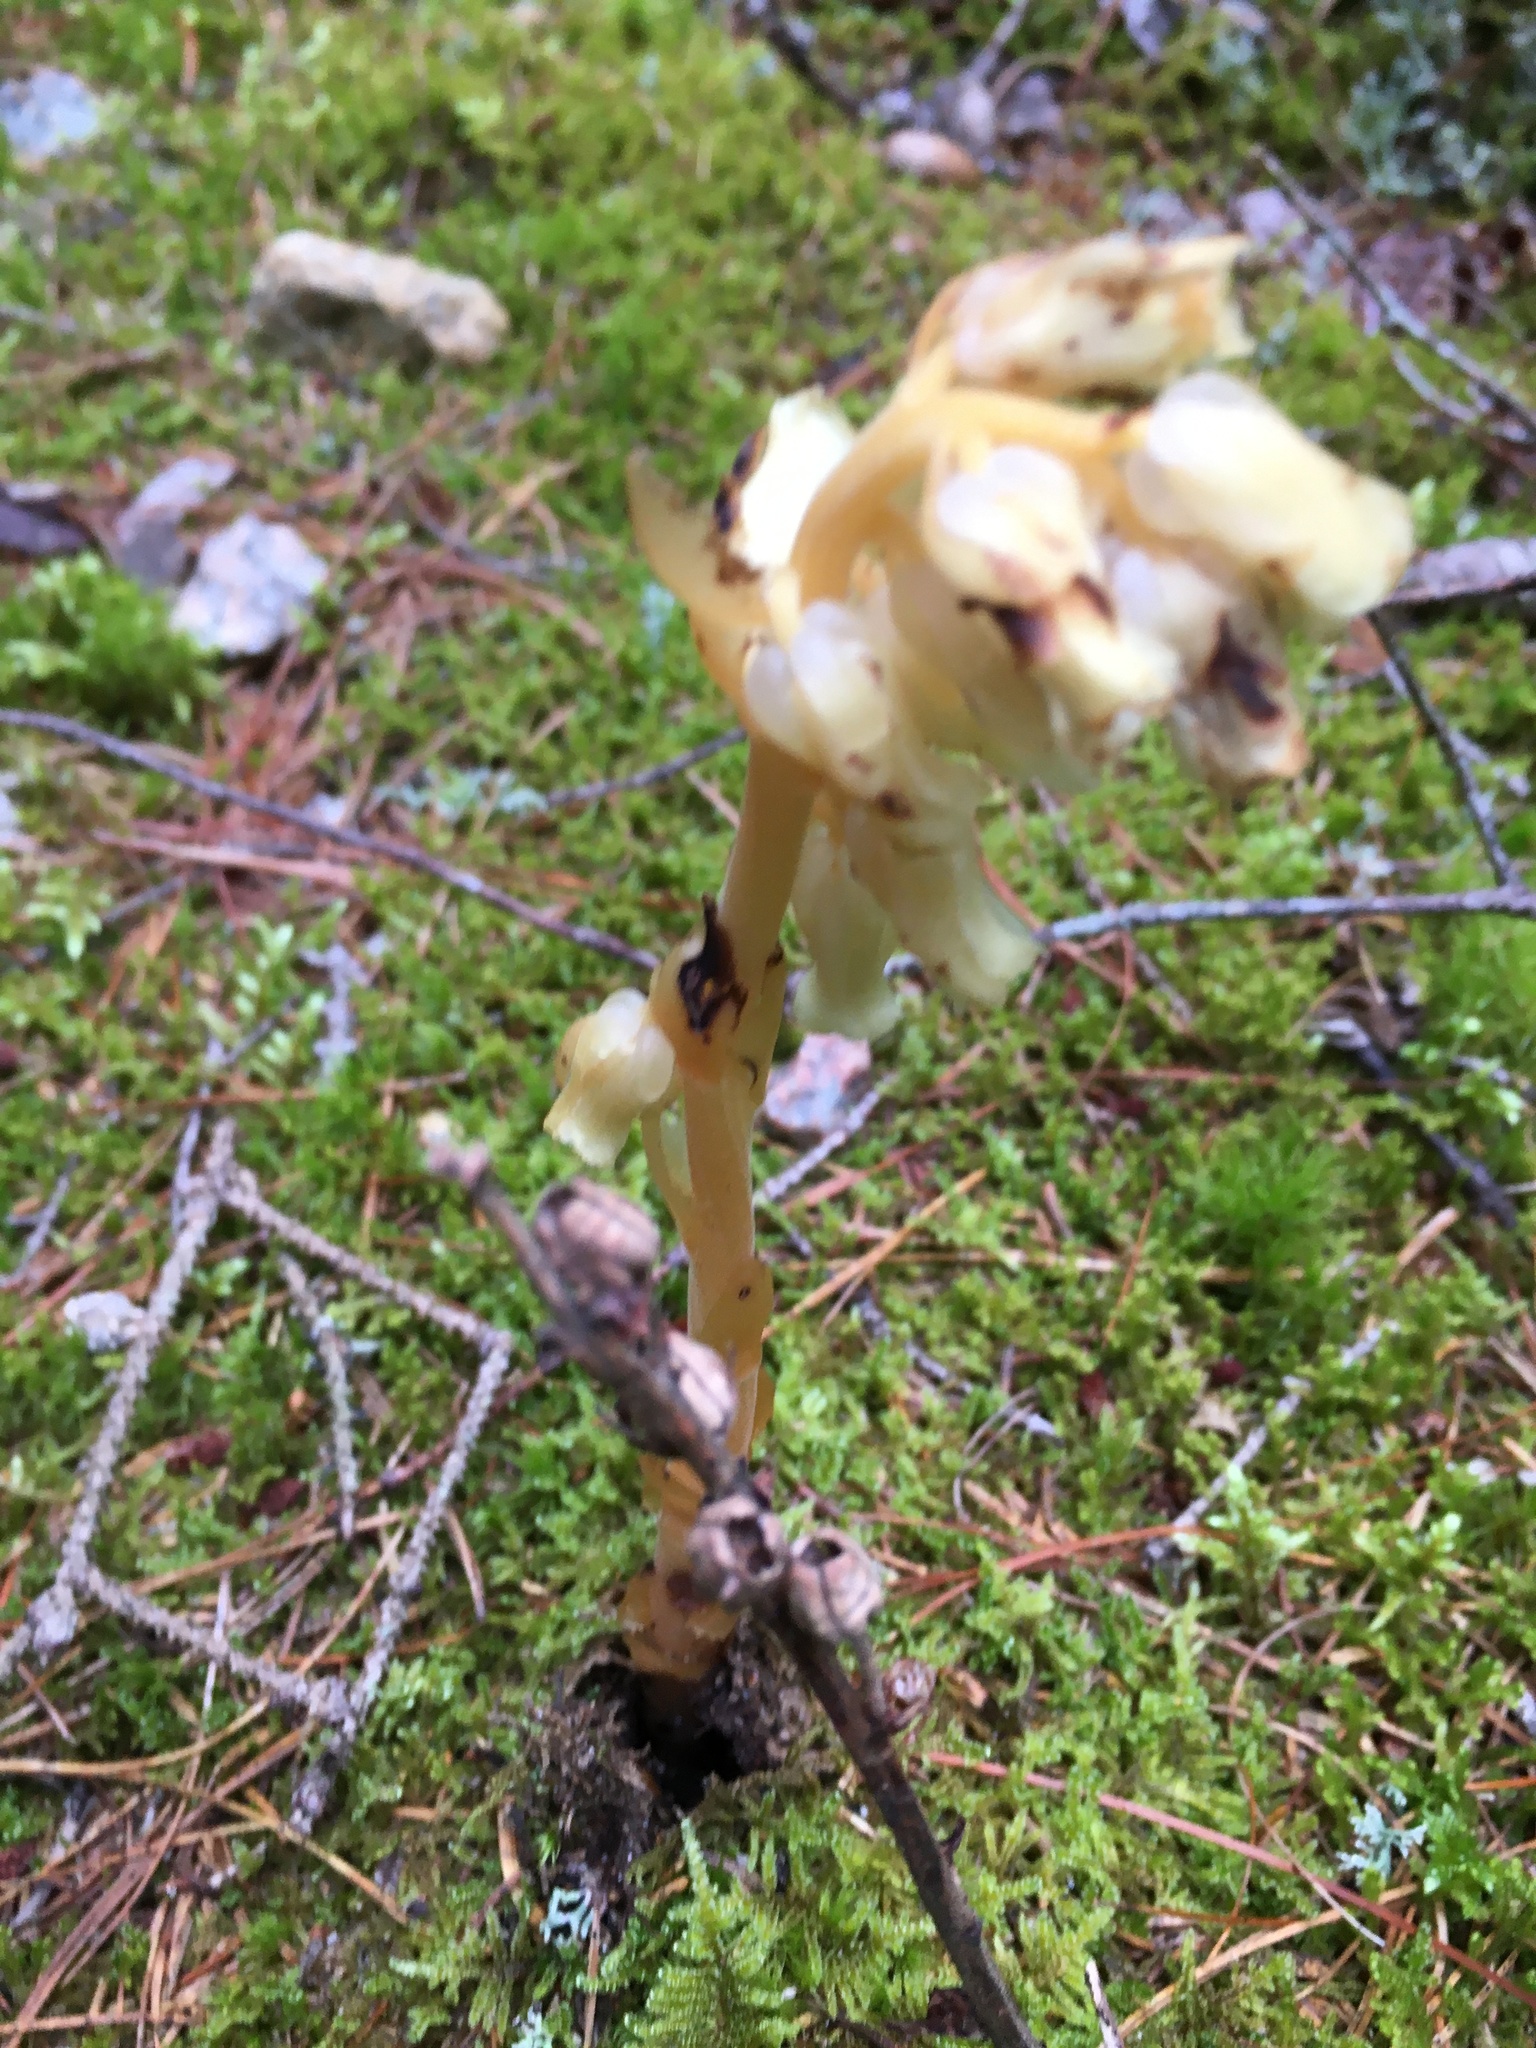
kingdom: Plantae
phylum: Tracheophyta
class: Magnoliopsida
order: Ericales
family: Ericaceae
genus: Hypopitys
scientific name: Hypopitys monotropa
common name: Yellow bird's-nest
